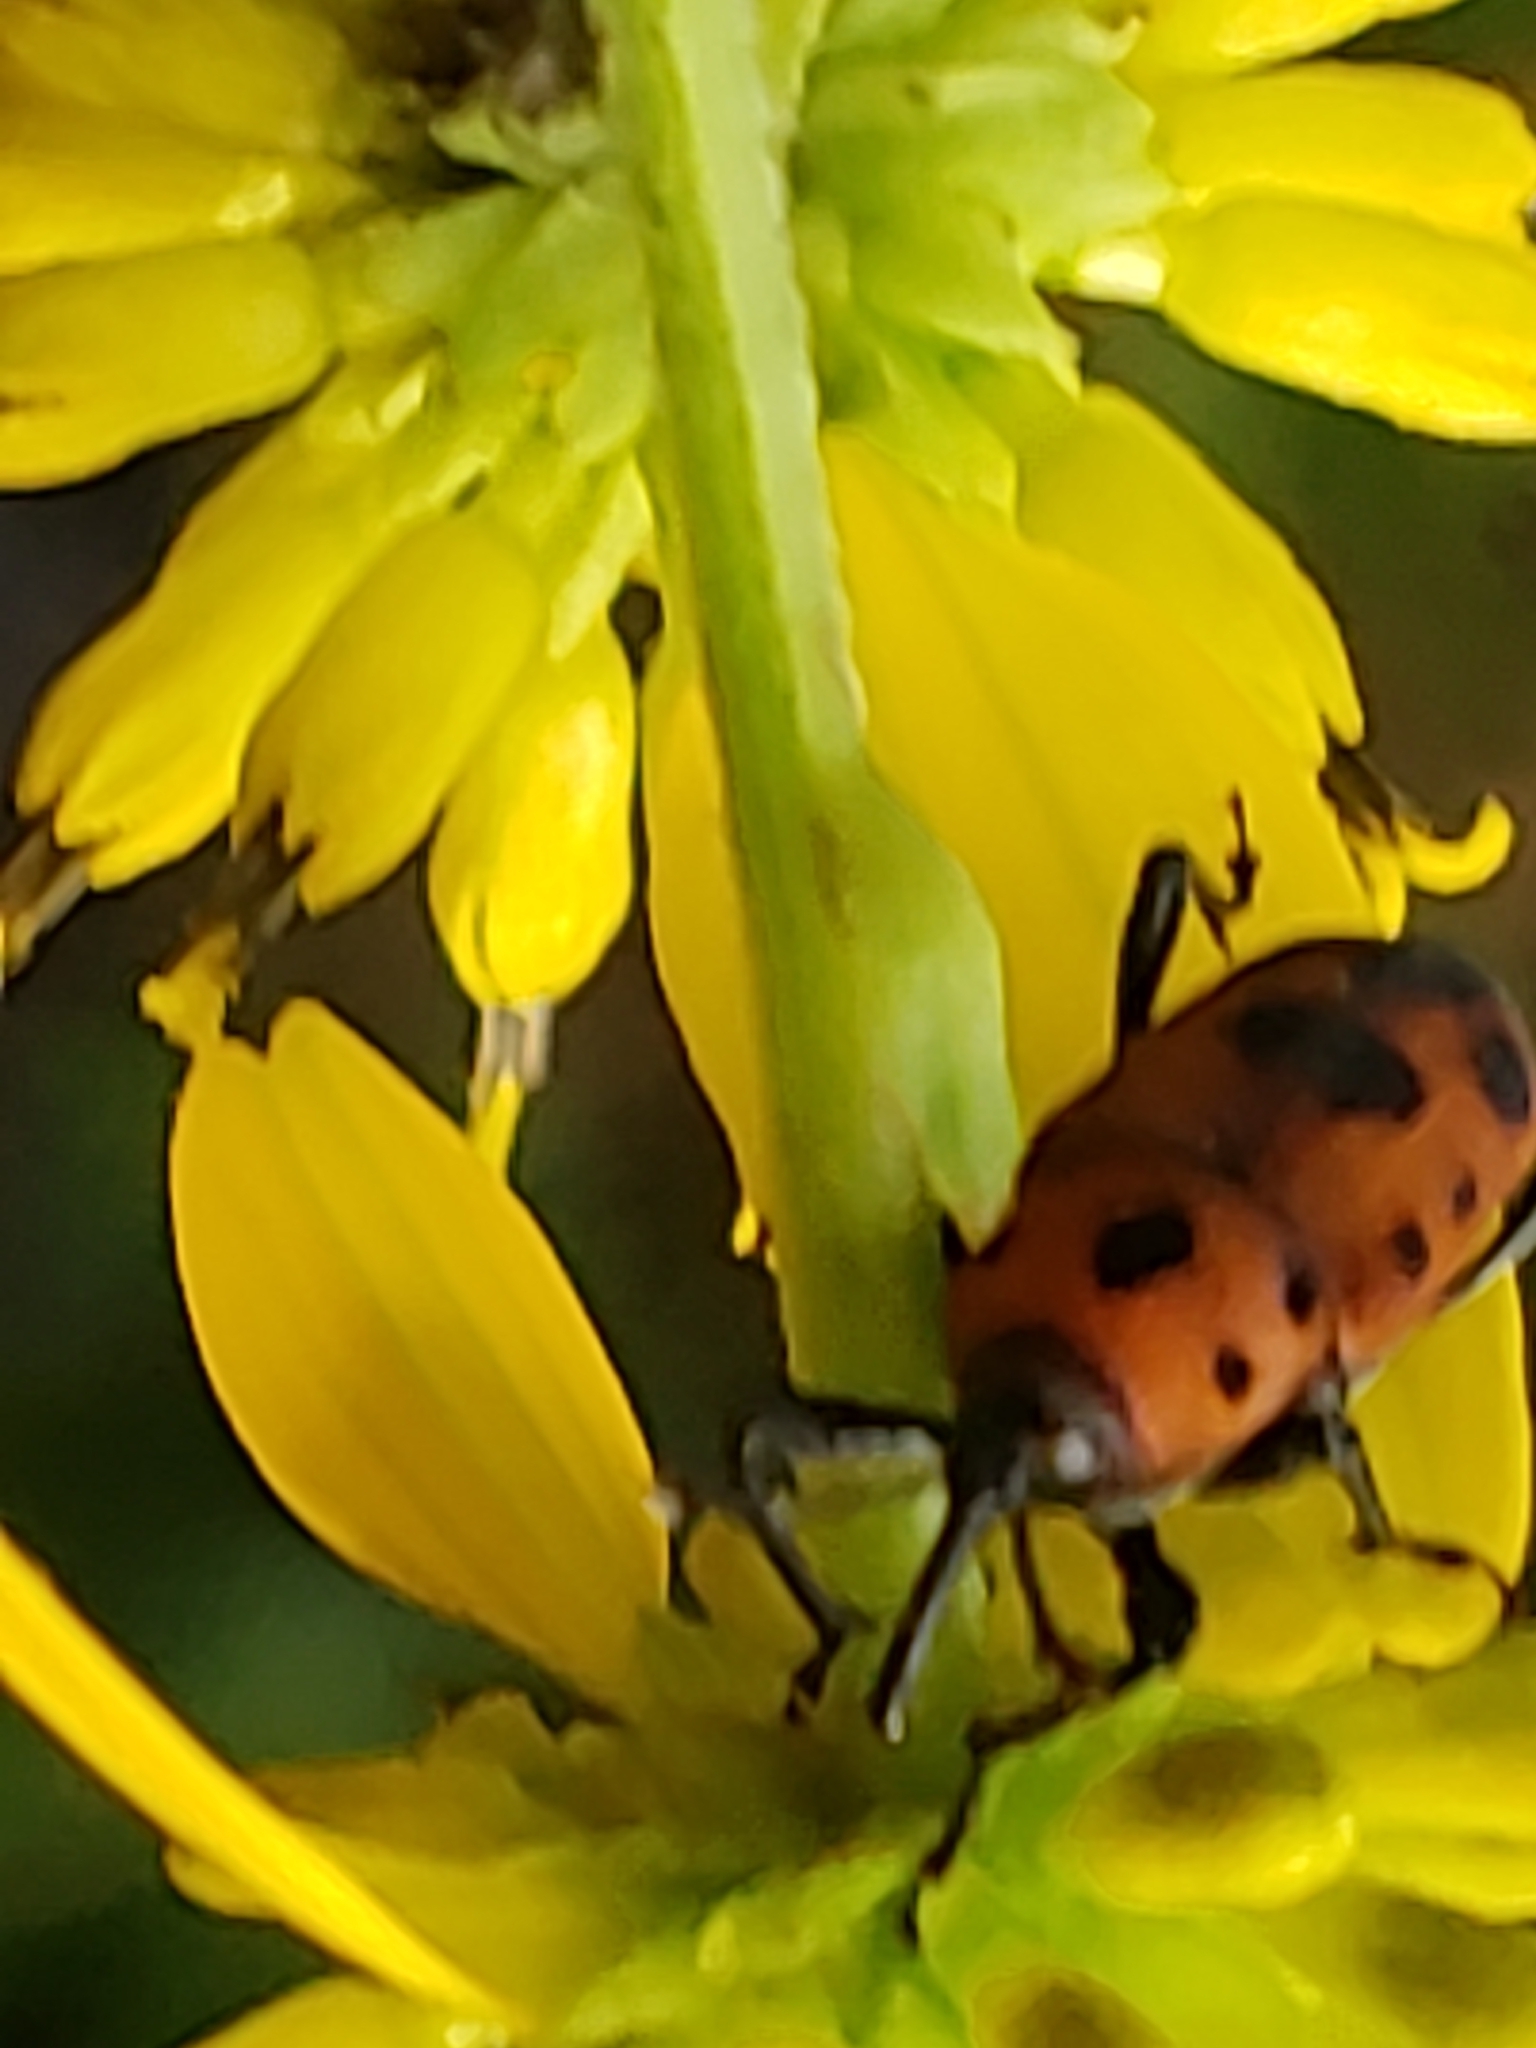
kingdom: Animalia
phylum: Arthropoda
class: Insecta
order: Coleoptera
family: Dryophthoridae
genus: Rhodobaenus
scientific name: Rhodobaenus quinquepunctatus
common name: Cocklebur weevil
